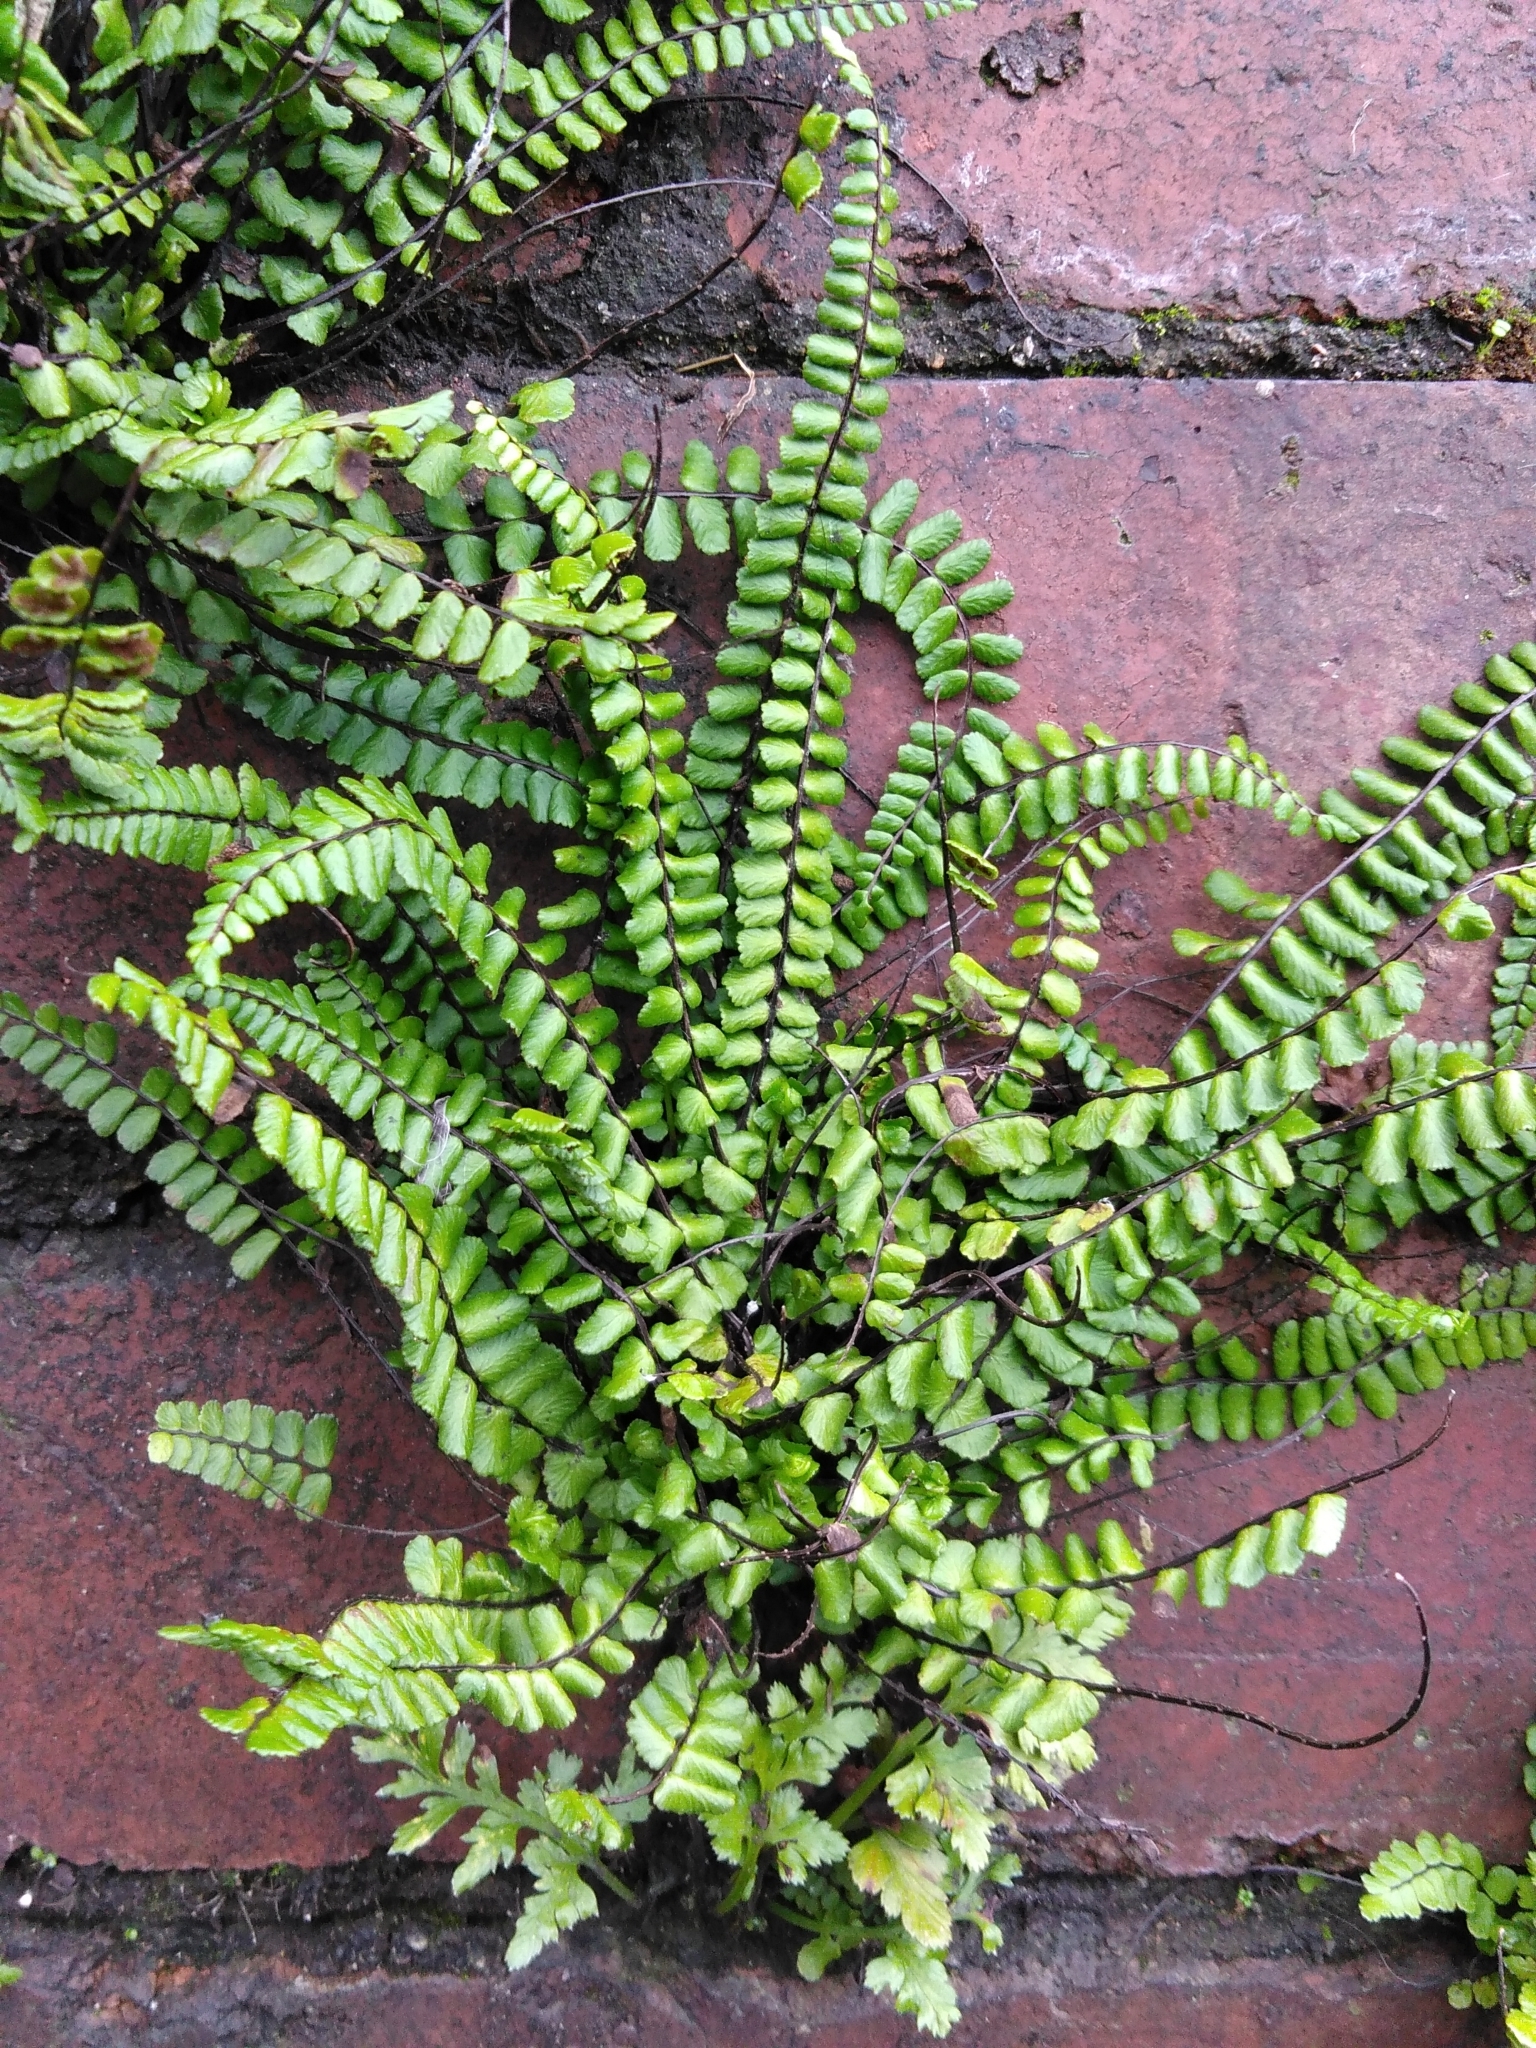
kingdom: Plantae
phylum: Tracheophyta
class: Polypodiopsida
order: Polypodiales
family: Aspleniaceae
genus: Asplenium
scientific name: Asplenium trichomanes
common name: Maidenhair spleenwort
